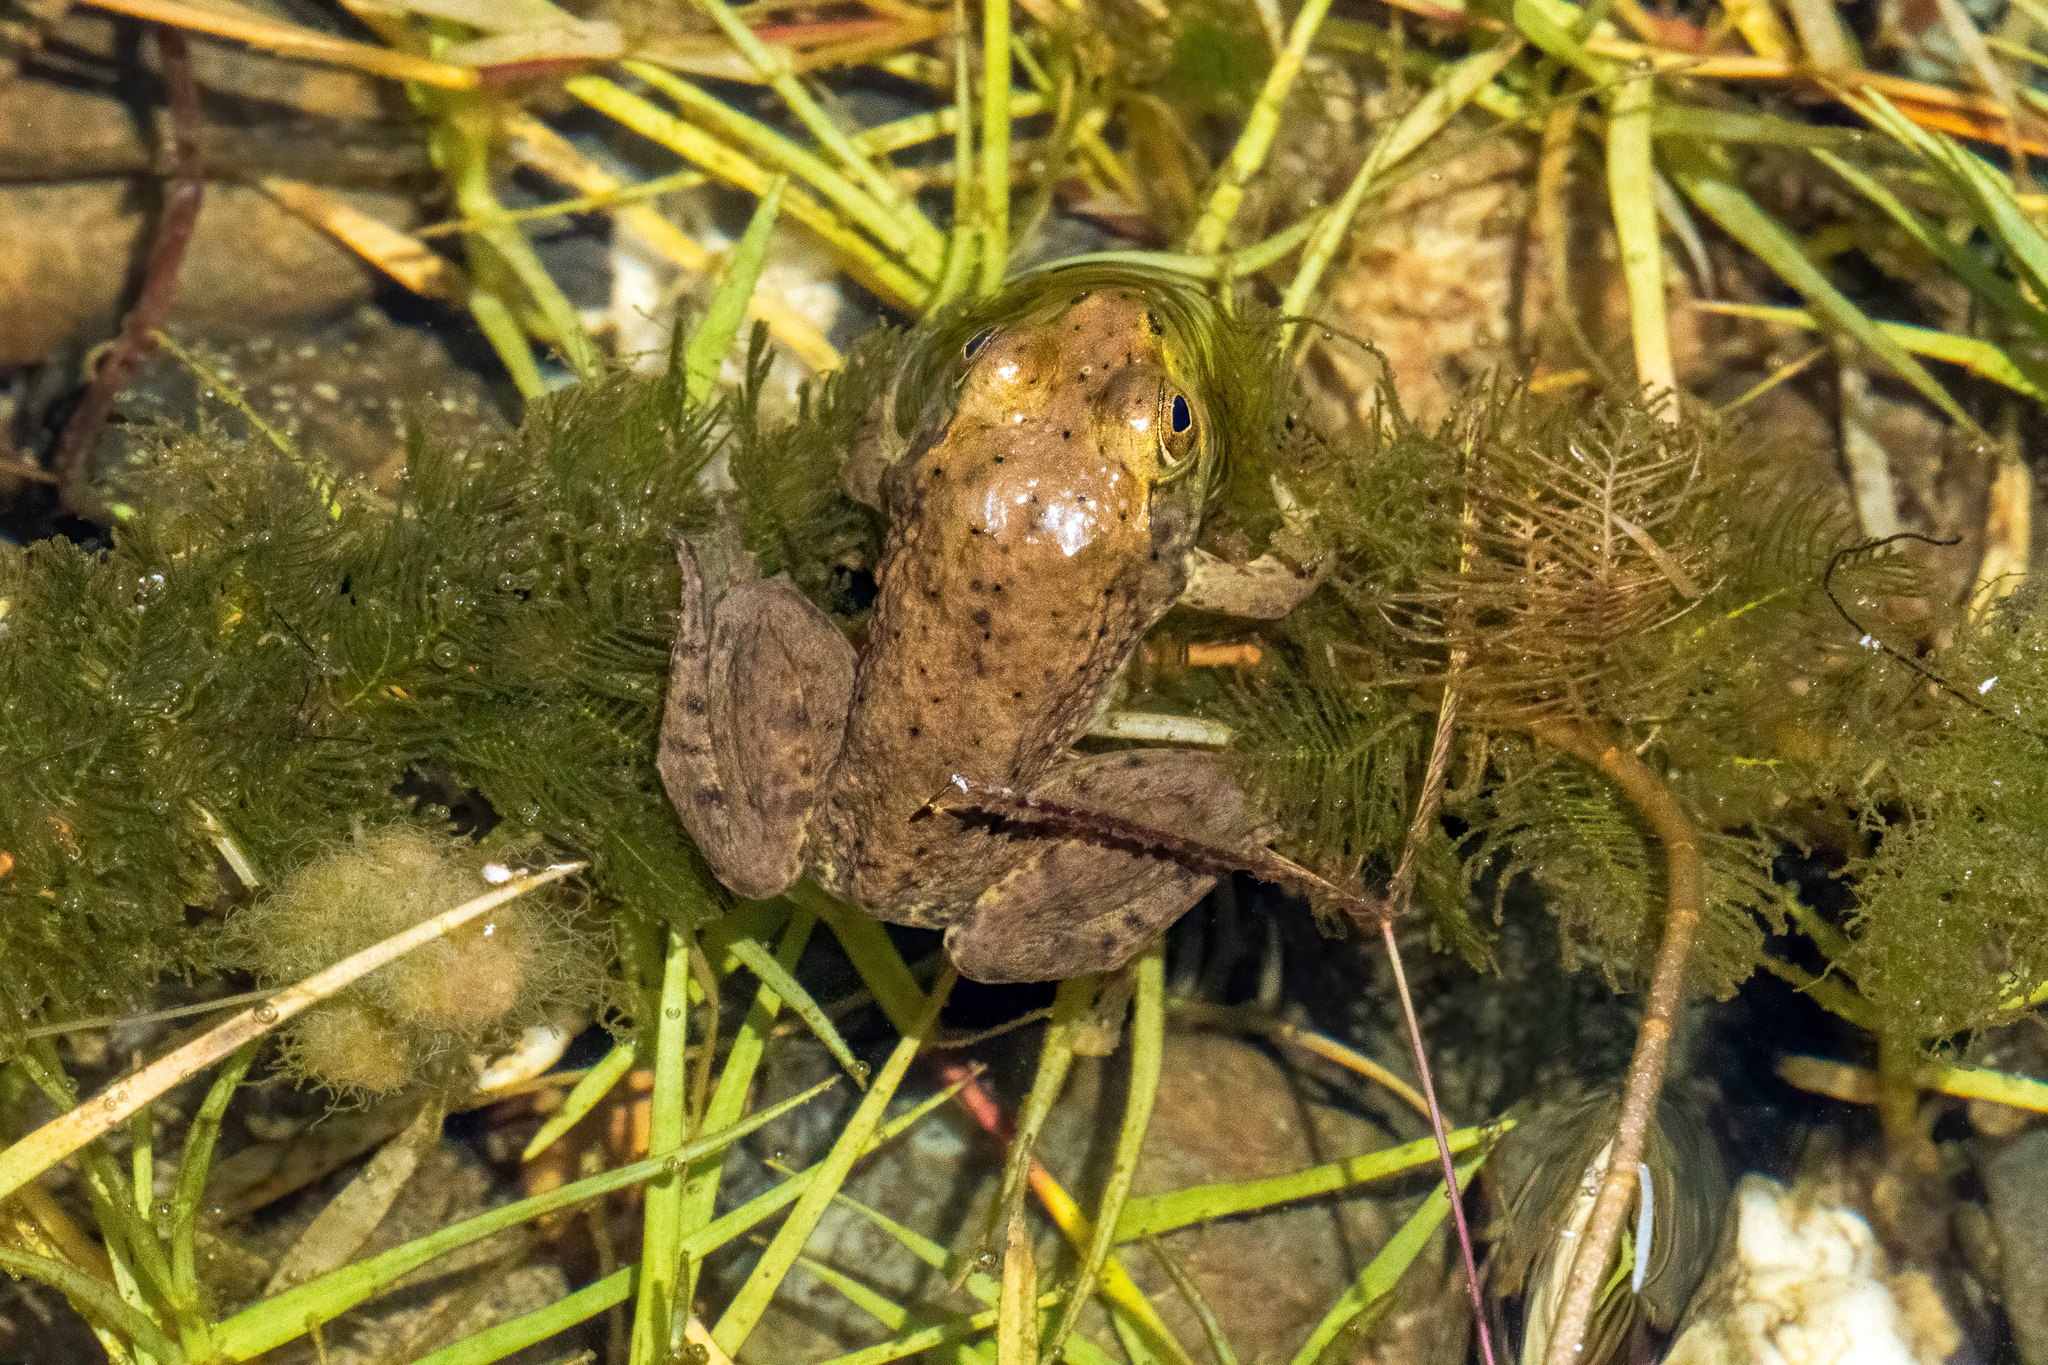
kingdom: Animalia
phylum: Chordata
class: Amphibia
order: Anura
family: Ranidae
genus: Lithobates
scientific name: Lithobates catesbeianus
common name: American bullfrog
